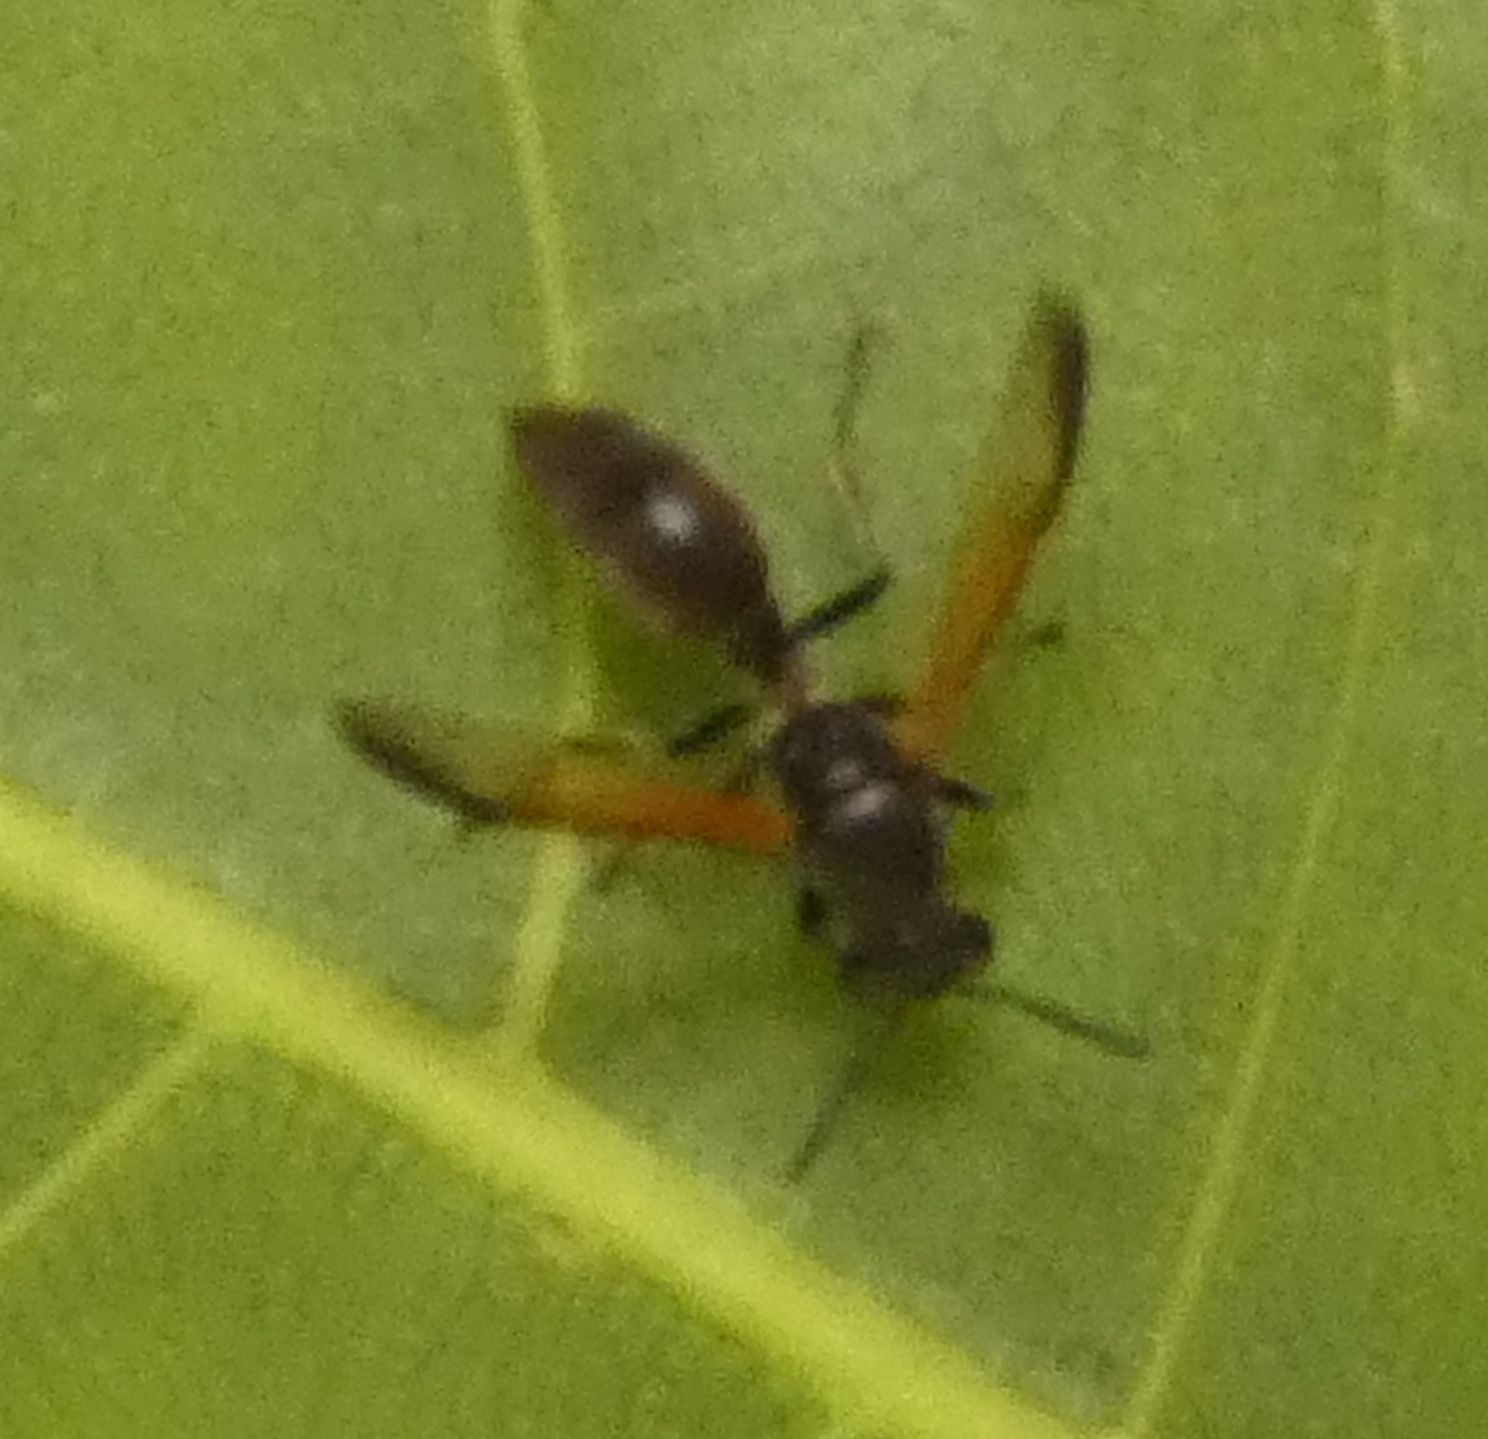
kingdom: Animalia
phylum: Arthropoda
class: Insecta
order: Hymenoptera
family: Eumenidae
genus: Polybia
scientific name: Polybia rejecta
